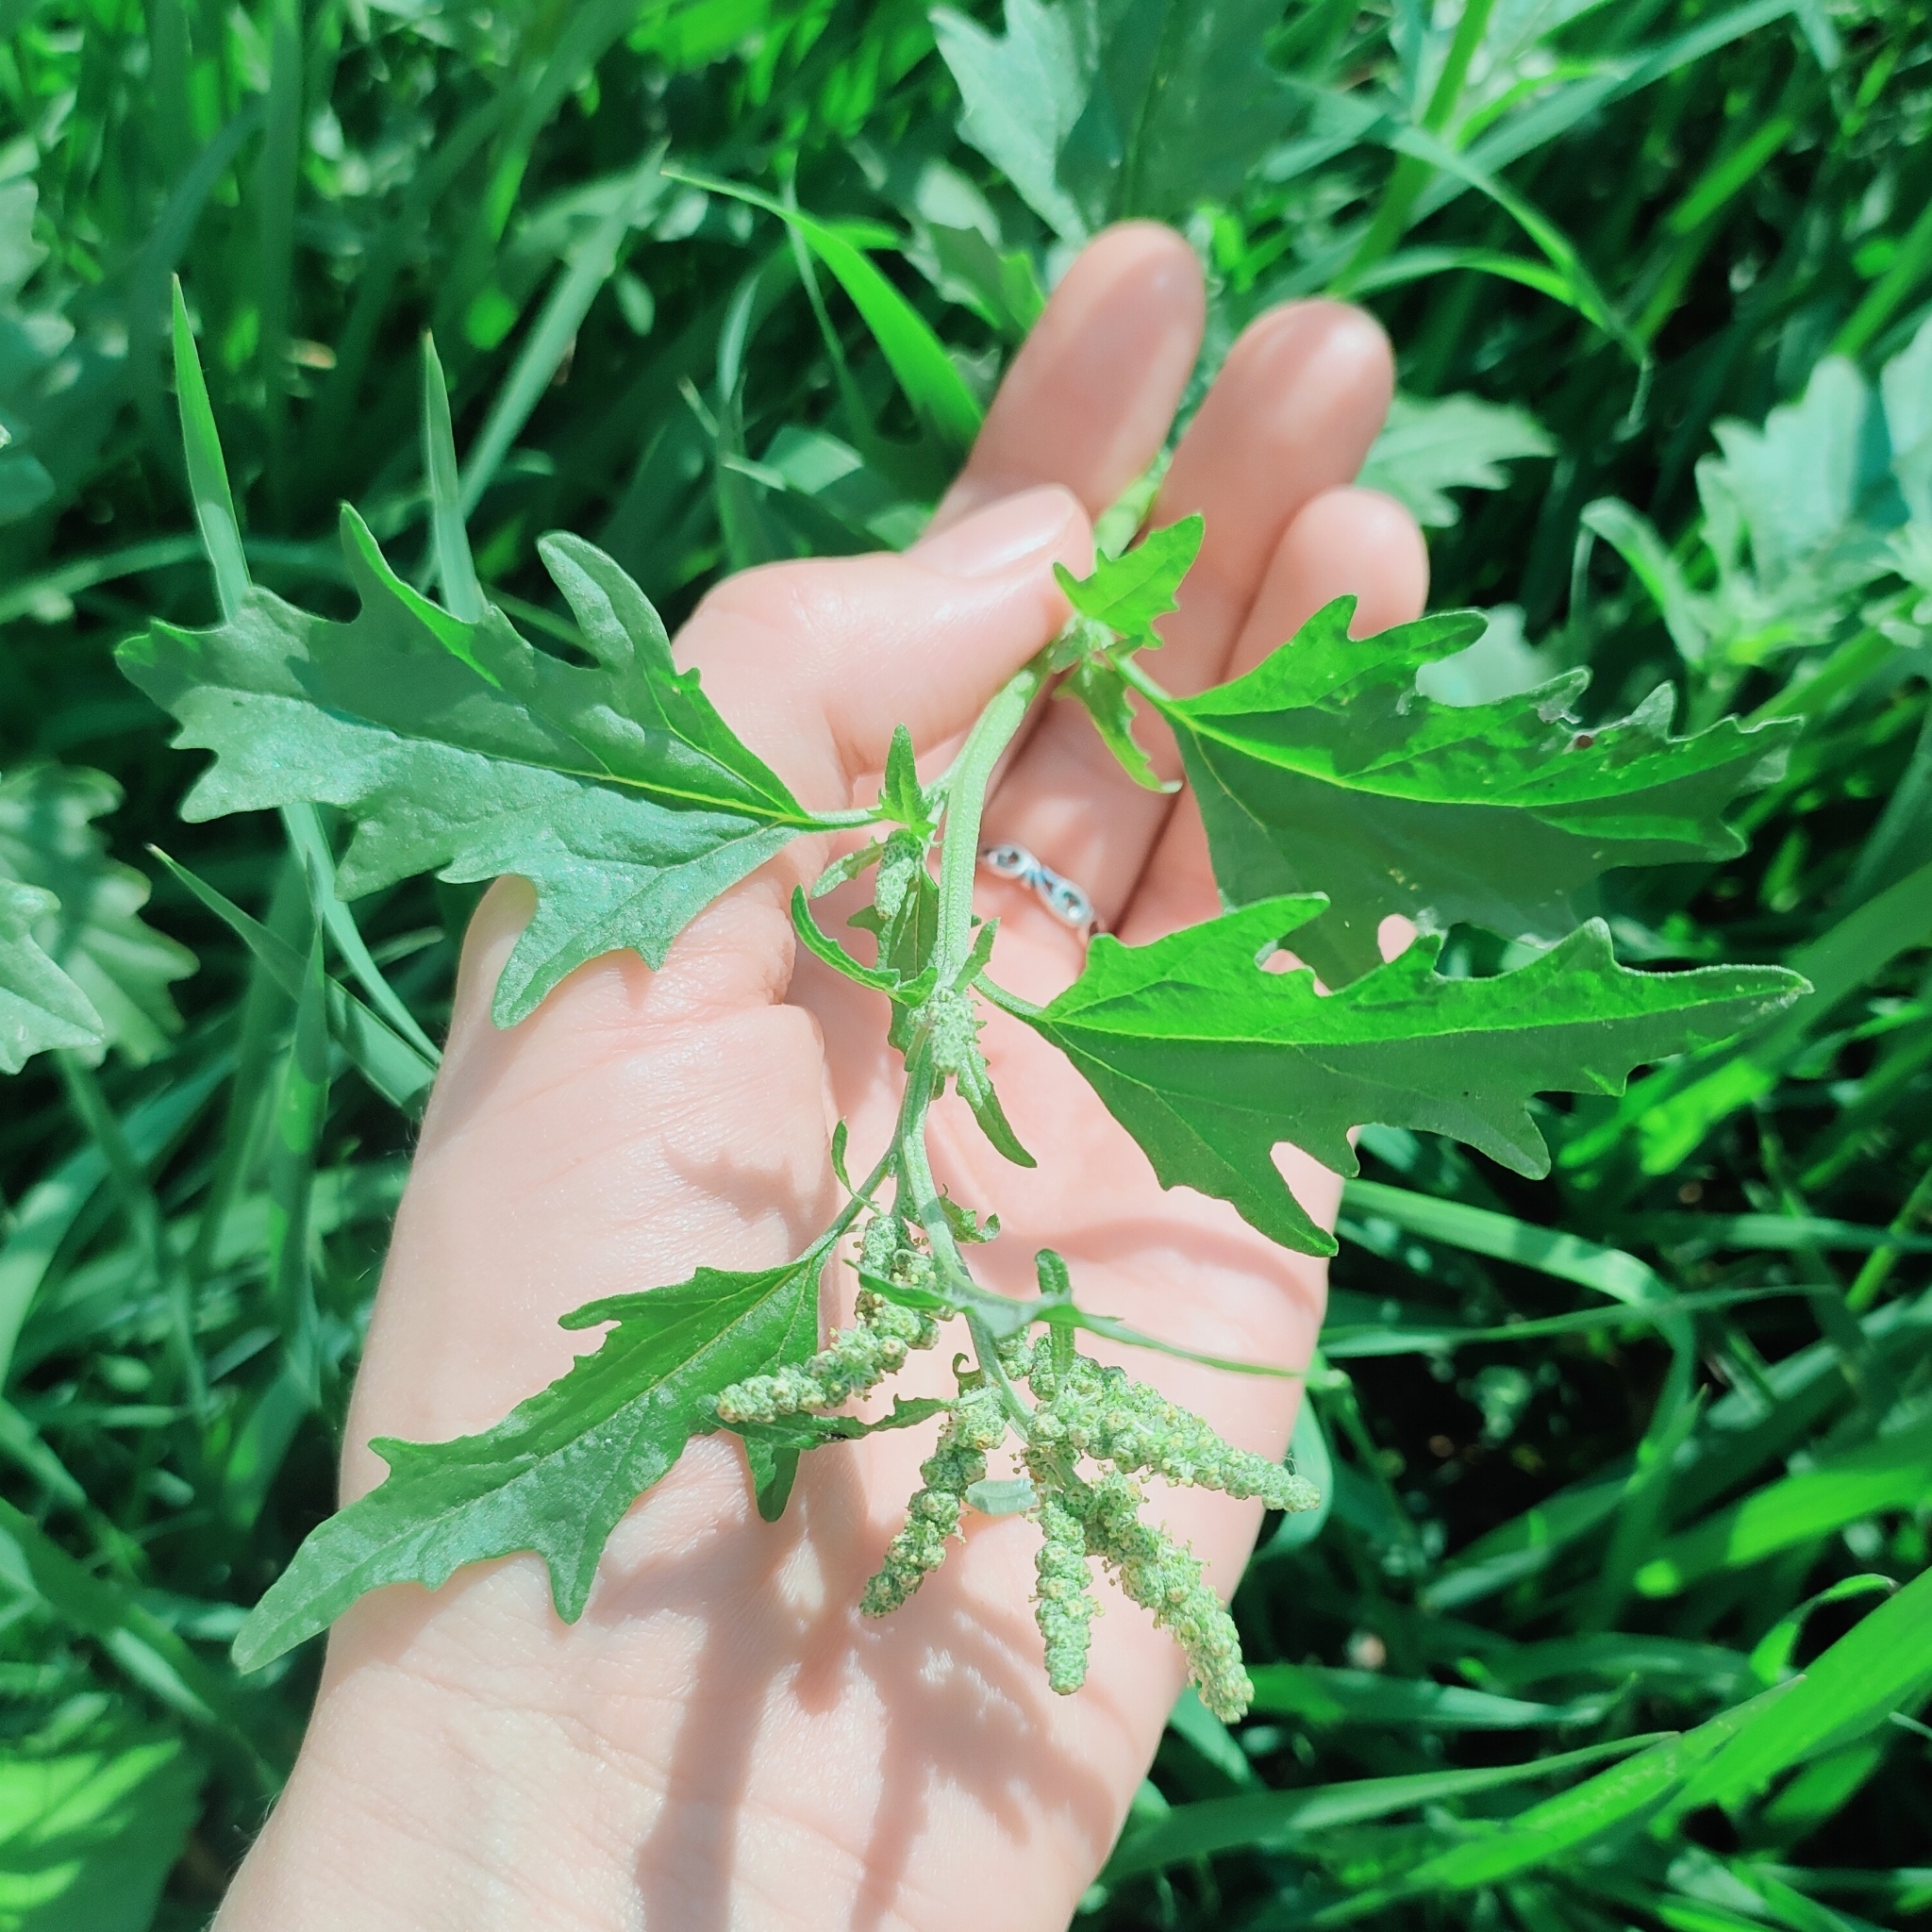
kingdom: Plantae
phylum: Tracheophyta
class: Magnoliopsida
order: Caryophyllales
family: Amaranthaceae
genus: Atriplex
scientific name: Atriplex tatarica
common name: Tatarian orache
